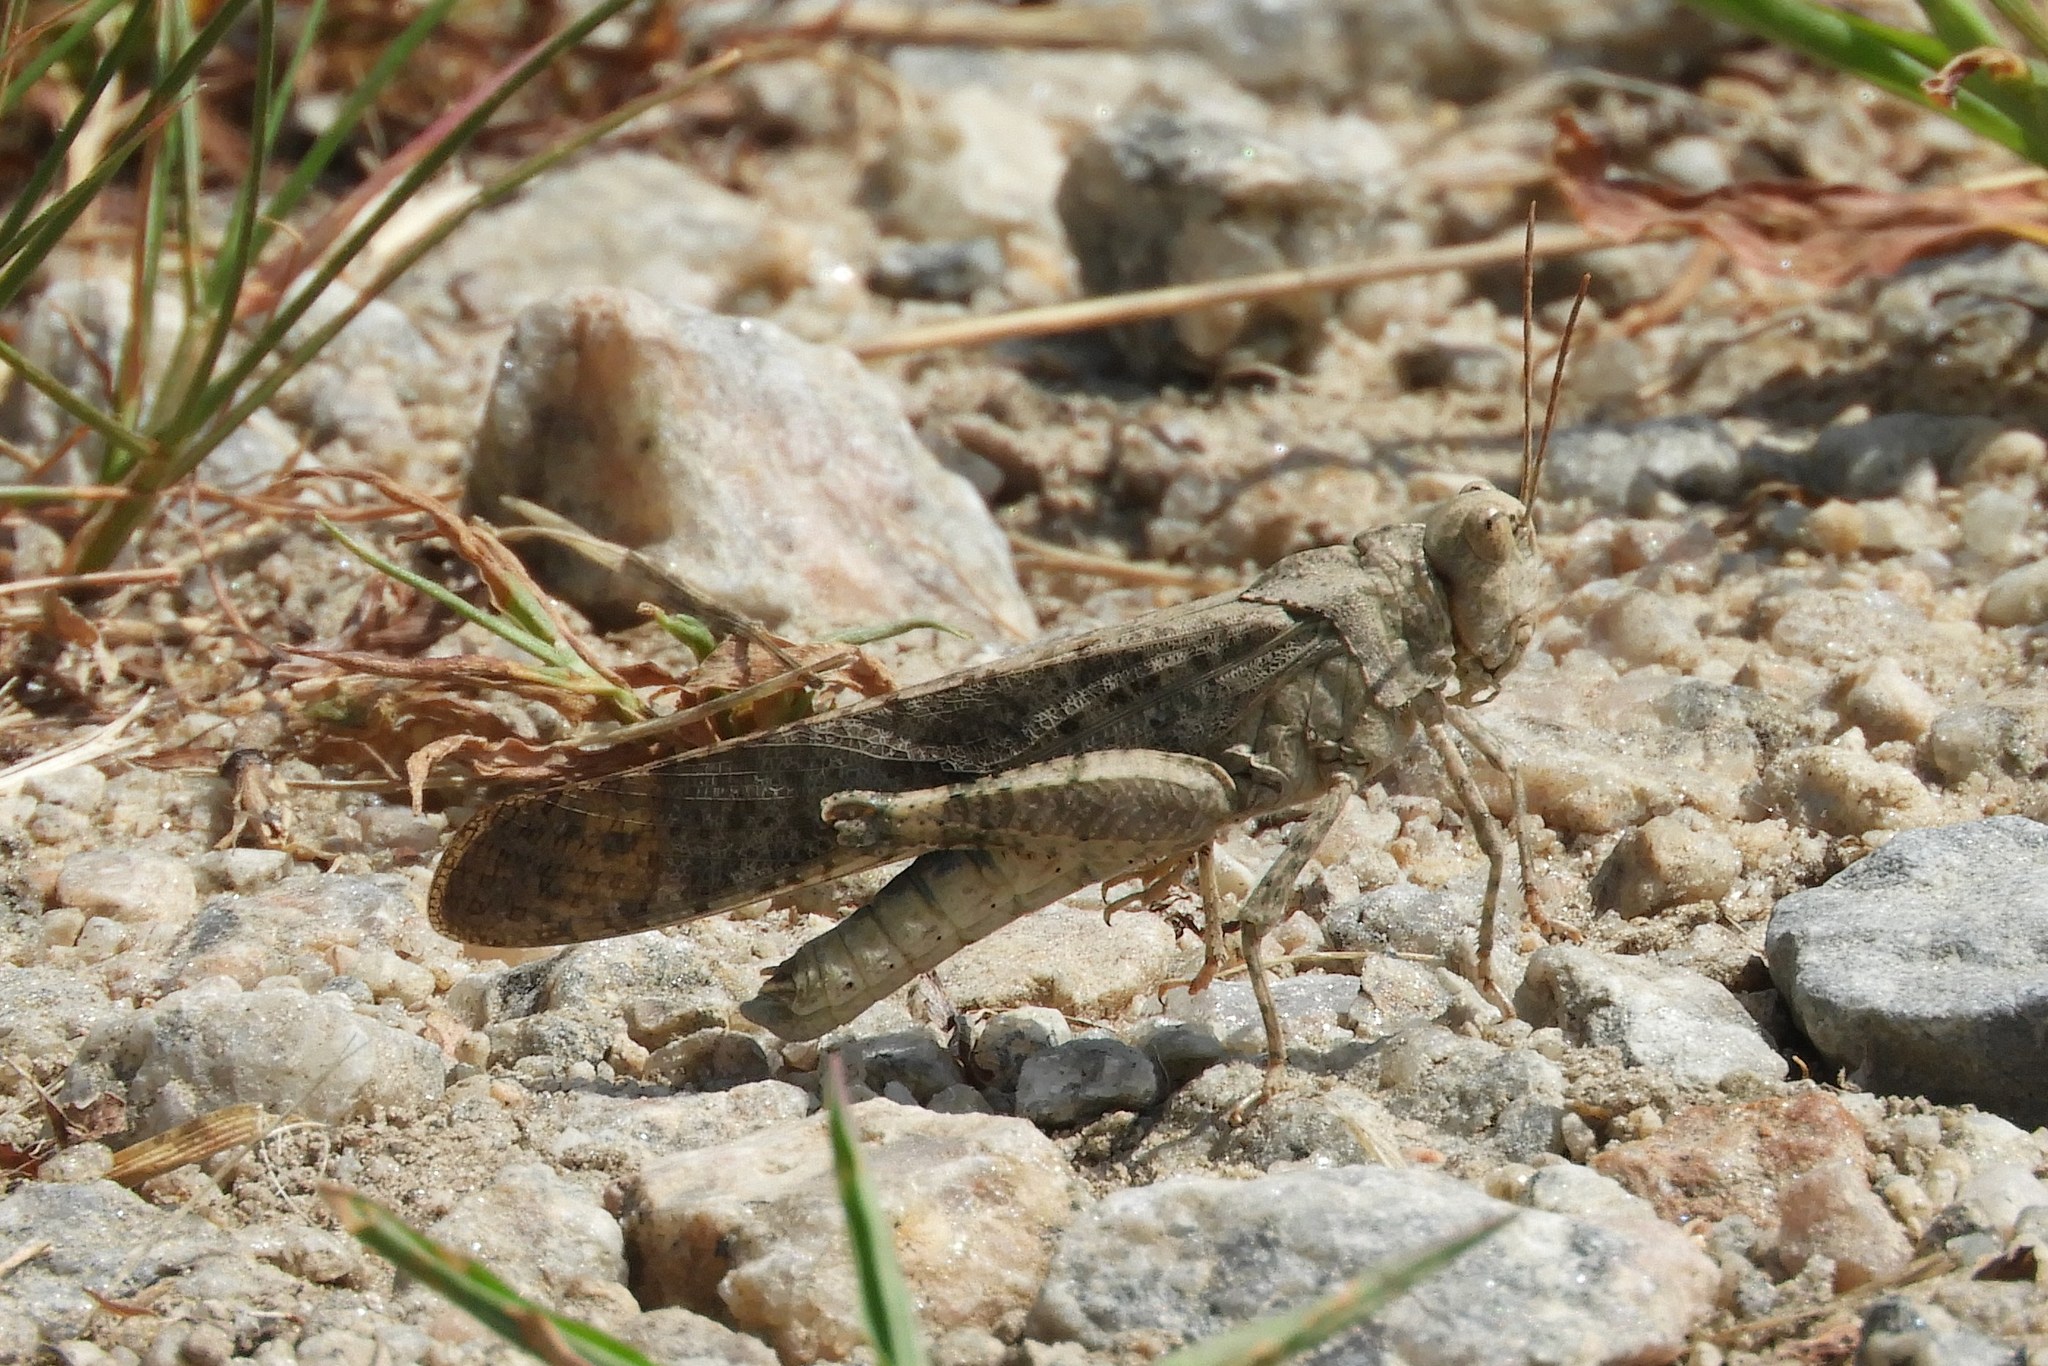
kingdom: Animalia
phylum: Arthropoda
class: Insecta
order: Orthoptera
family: Acrididae
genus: Dissosteira
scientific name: Dissosteira carolina
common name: Carolina grasshopper
